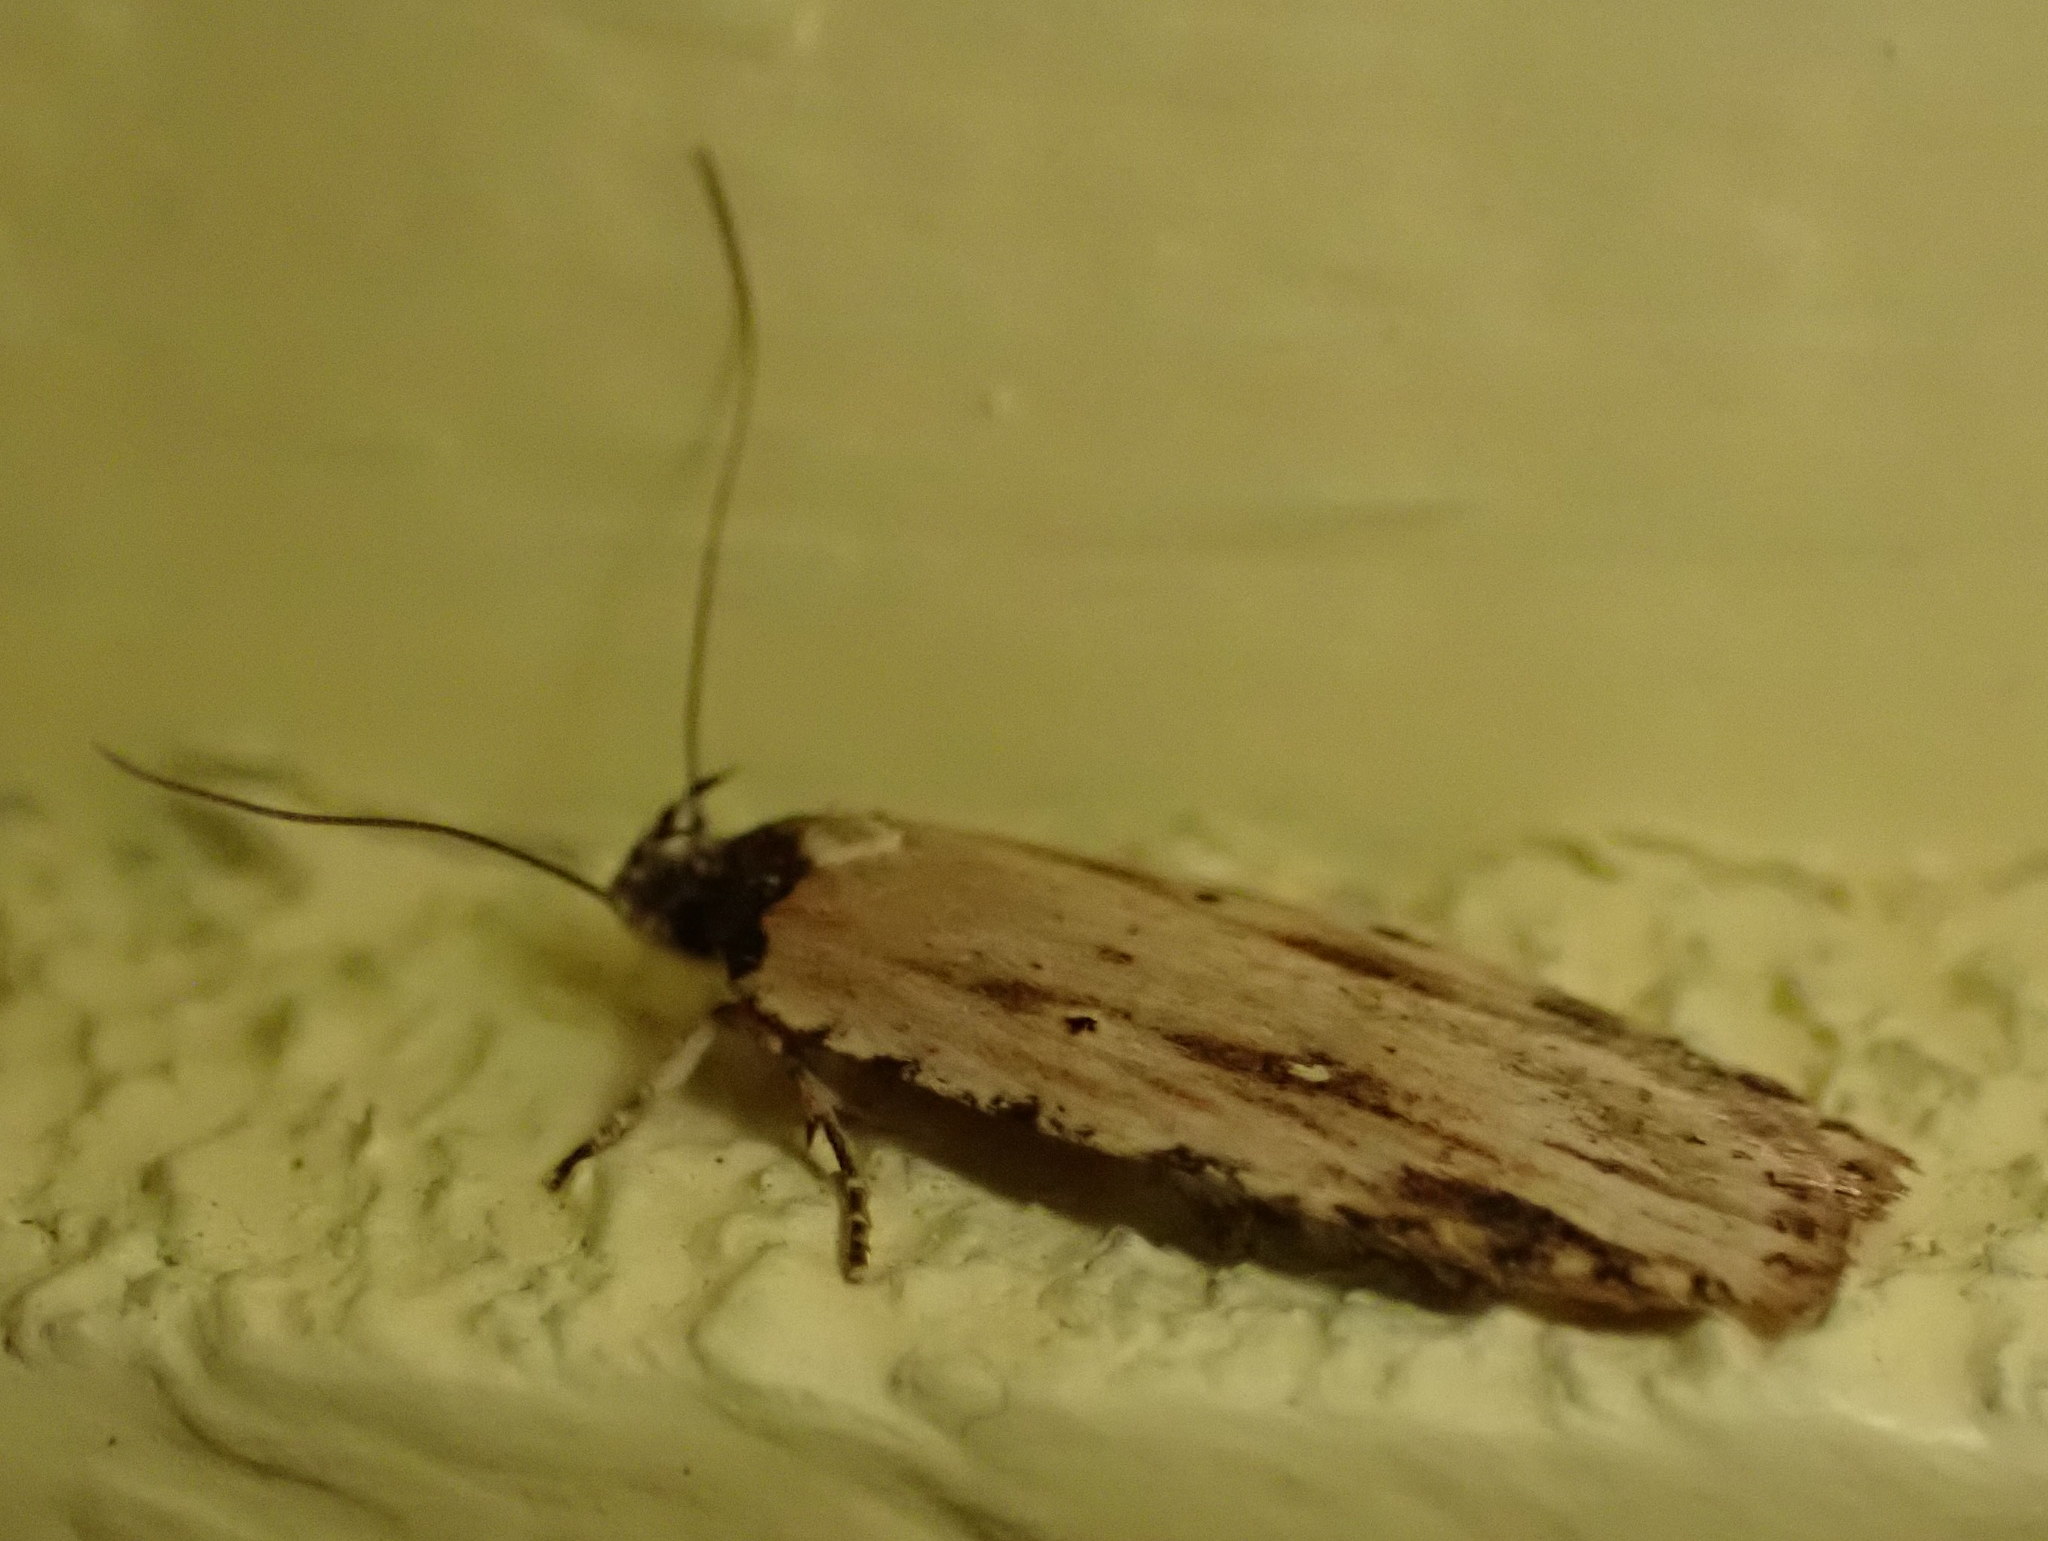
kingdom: Animalia
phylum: Arthropoda
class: Insecta
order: Lepidoptera
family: Depressariidae
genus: Agonopterix
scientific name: Agonopterix atrodorsella
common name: Beggartick leaffolder
